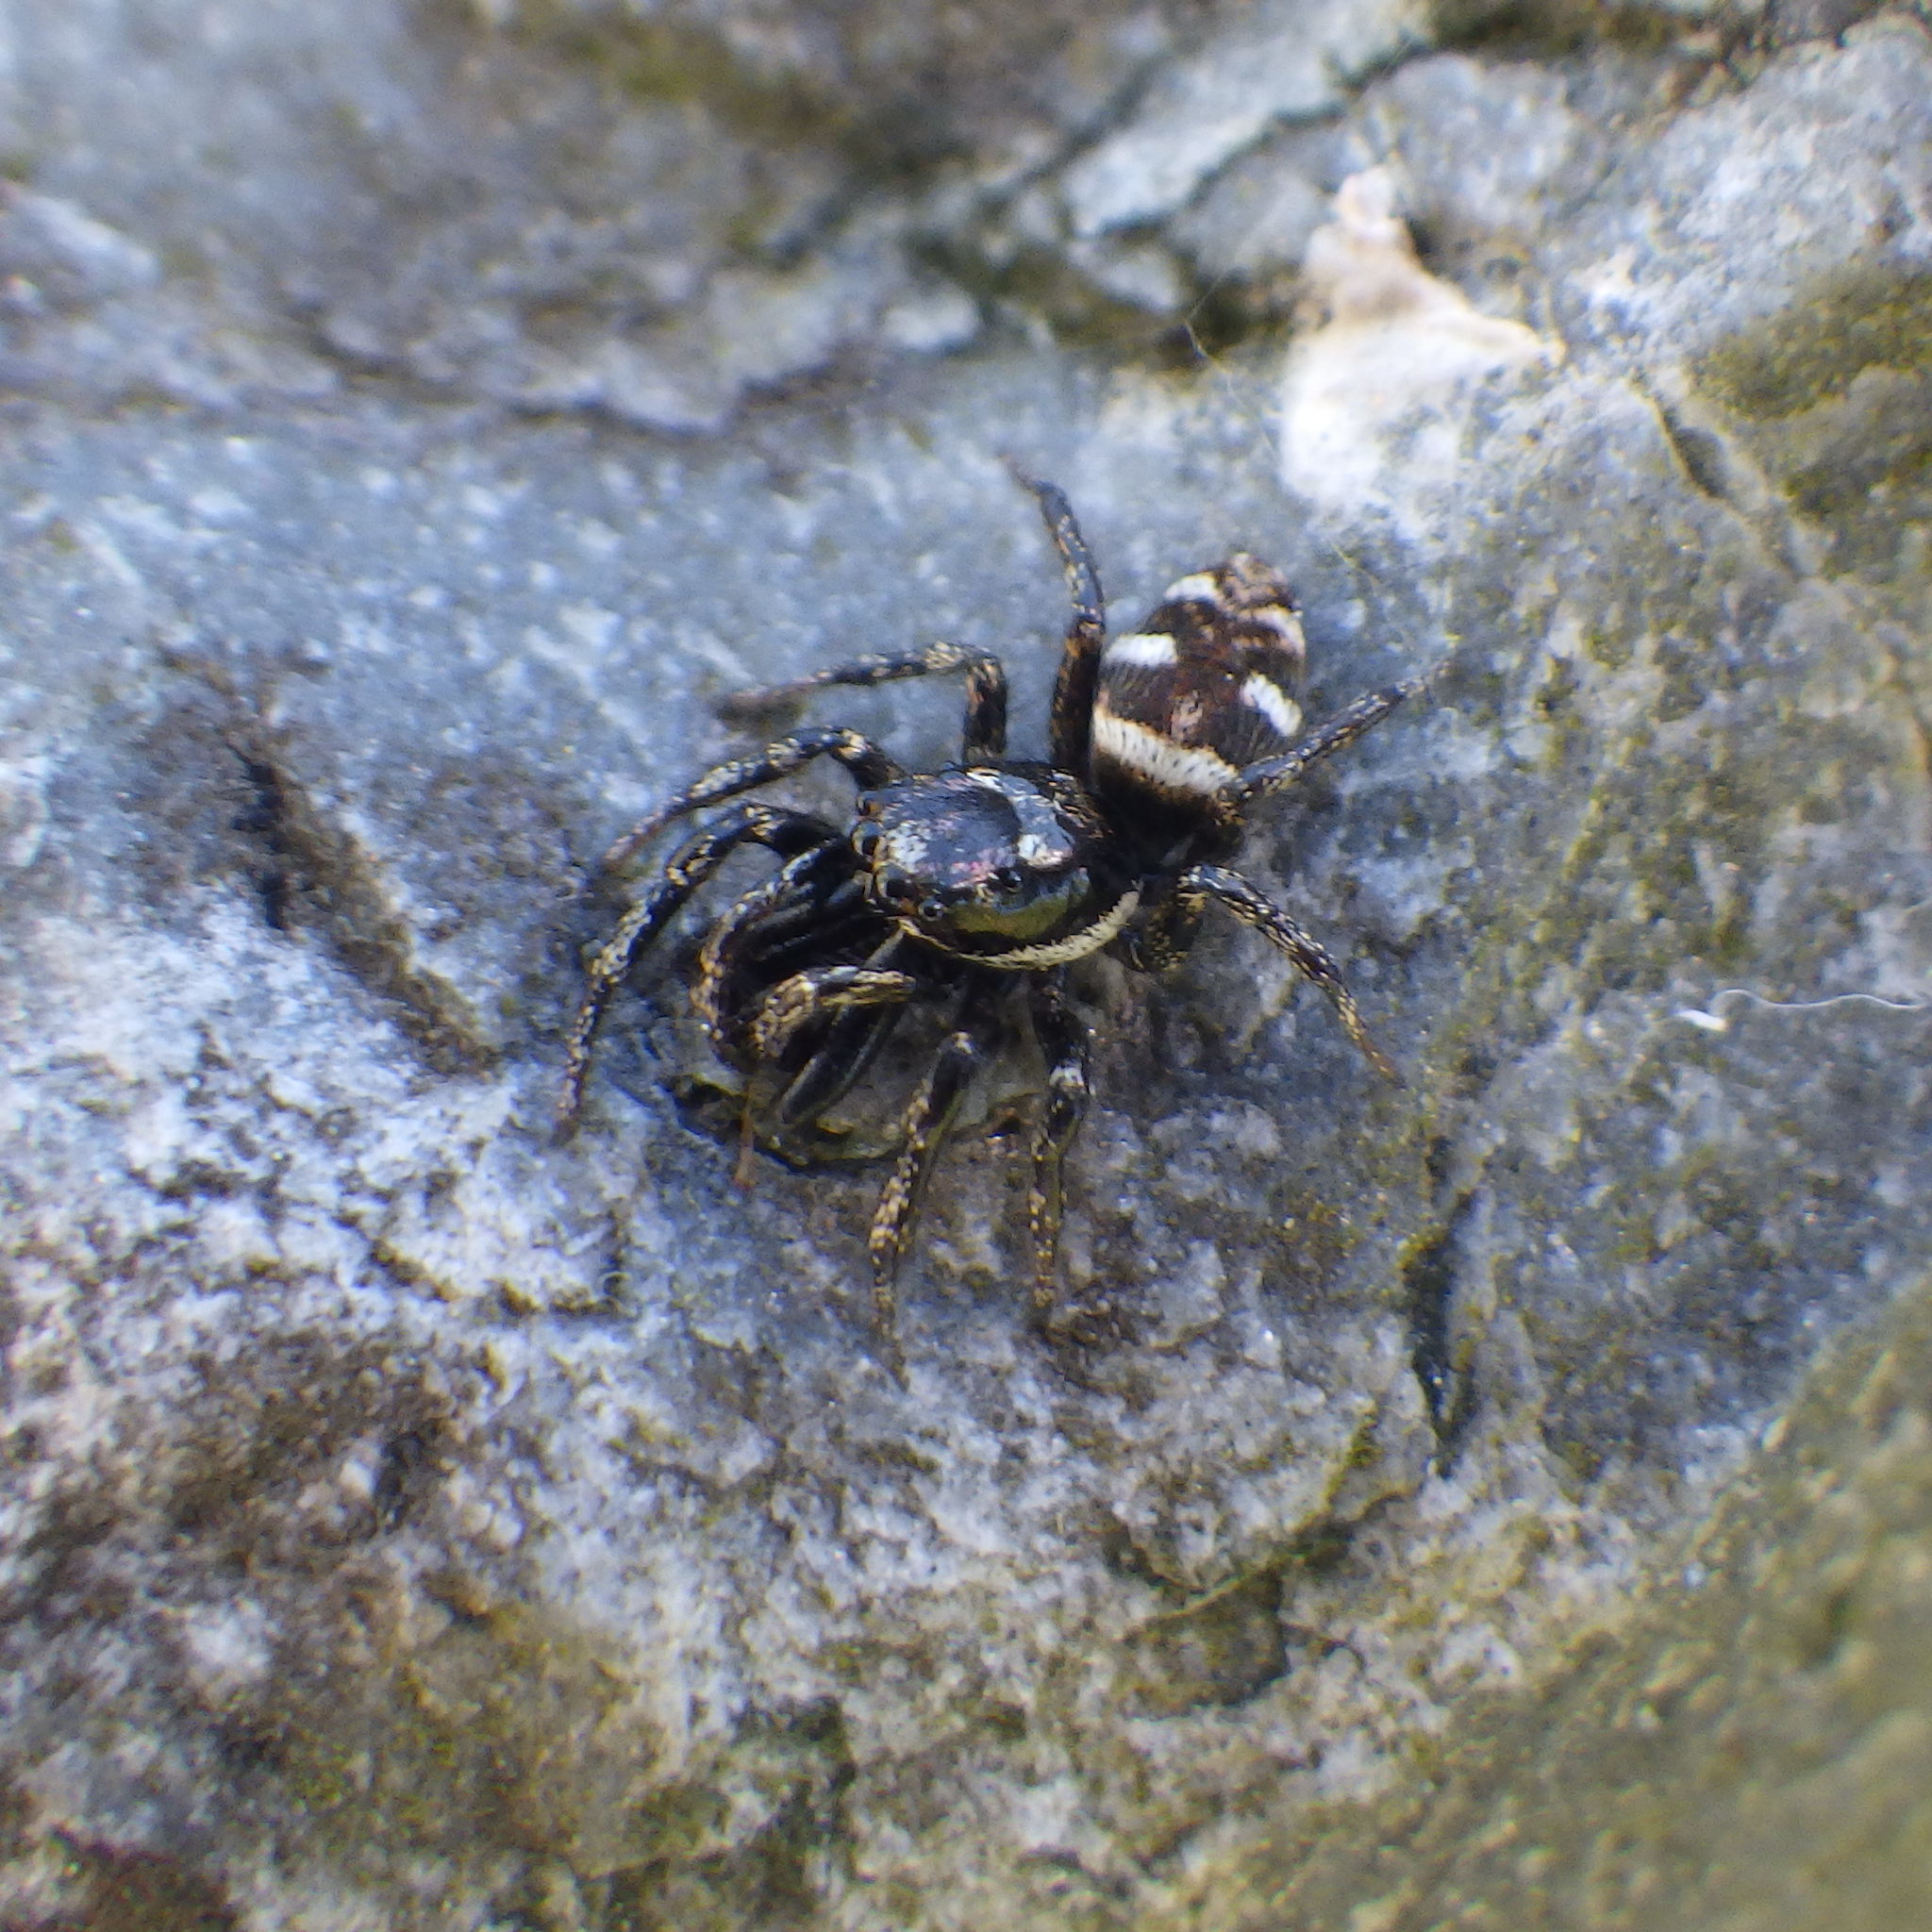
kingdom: Animalia
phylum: Arthropoda
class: Arachnida
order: Araneae
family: Salticidae
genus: Salticus
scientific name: Salticus scenicus
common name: Zebra jumper
